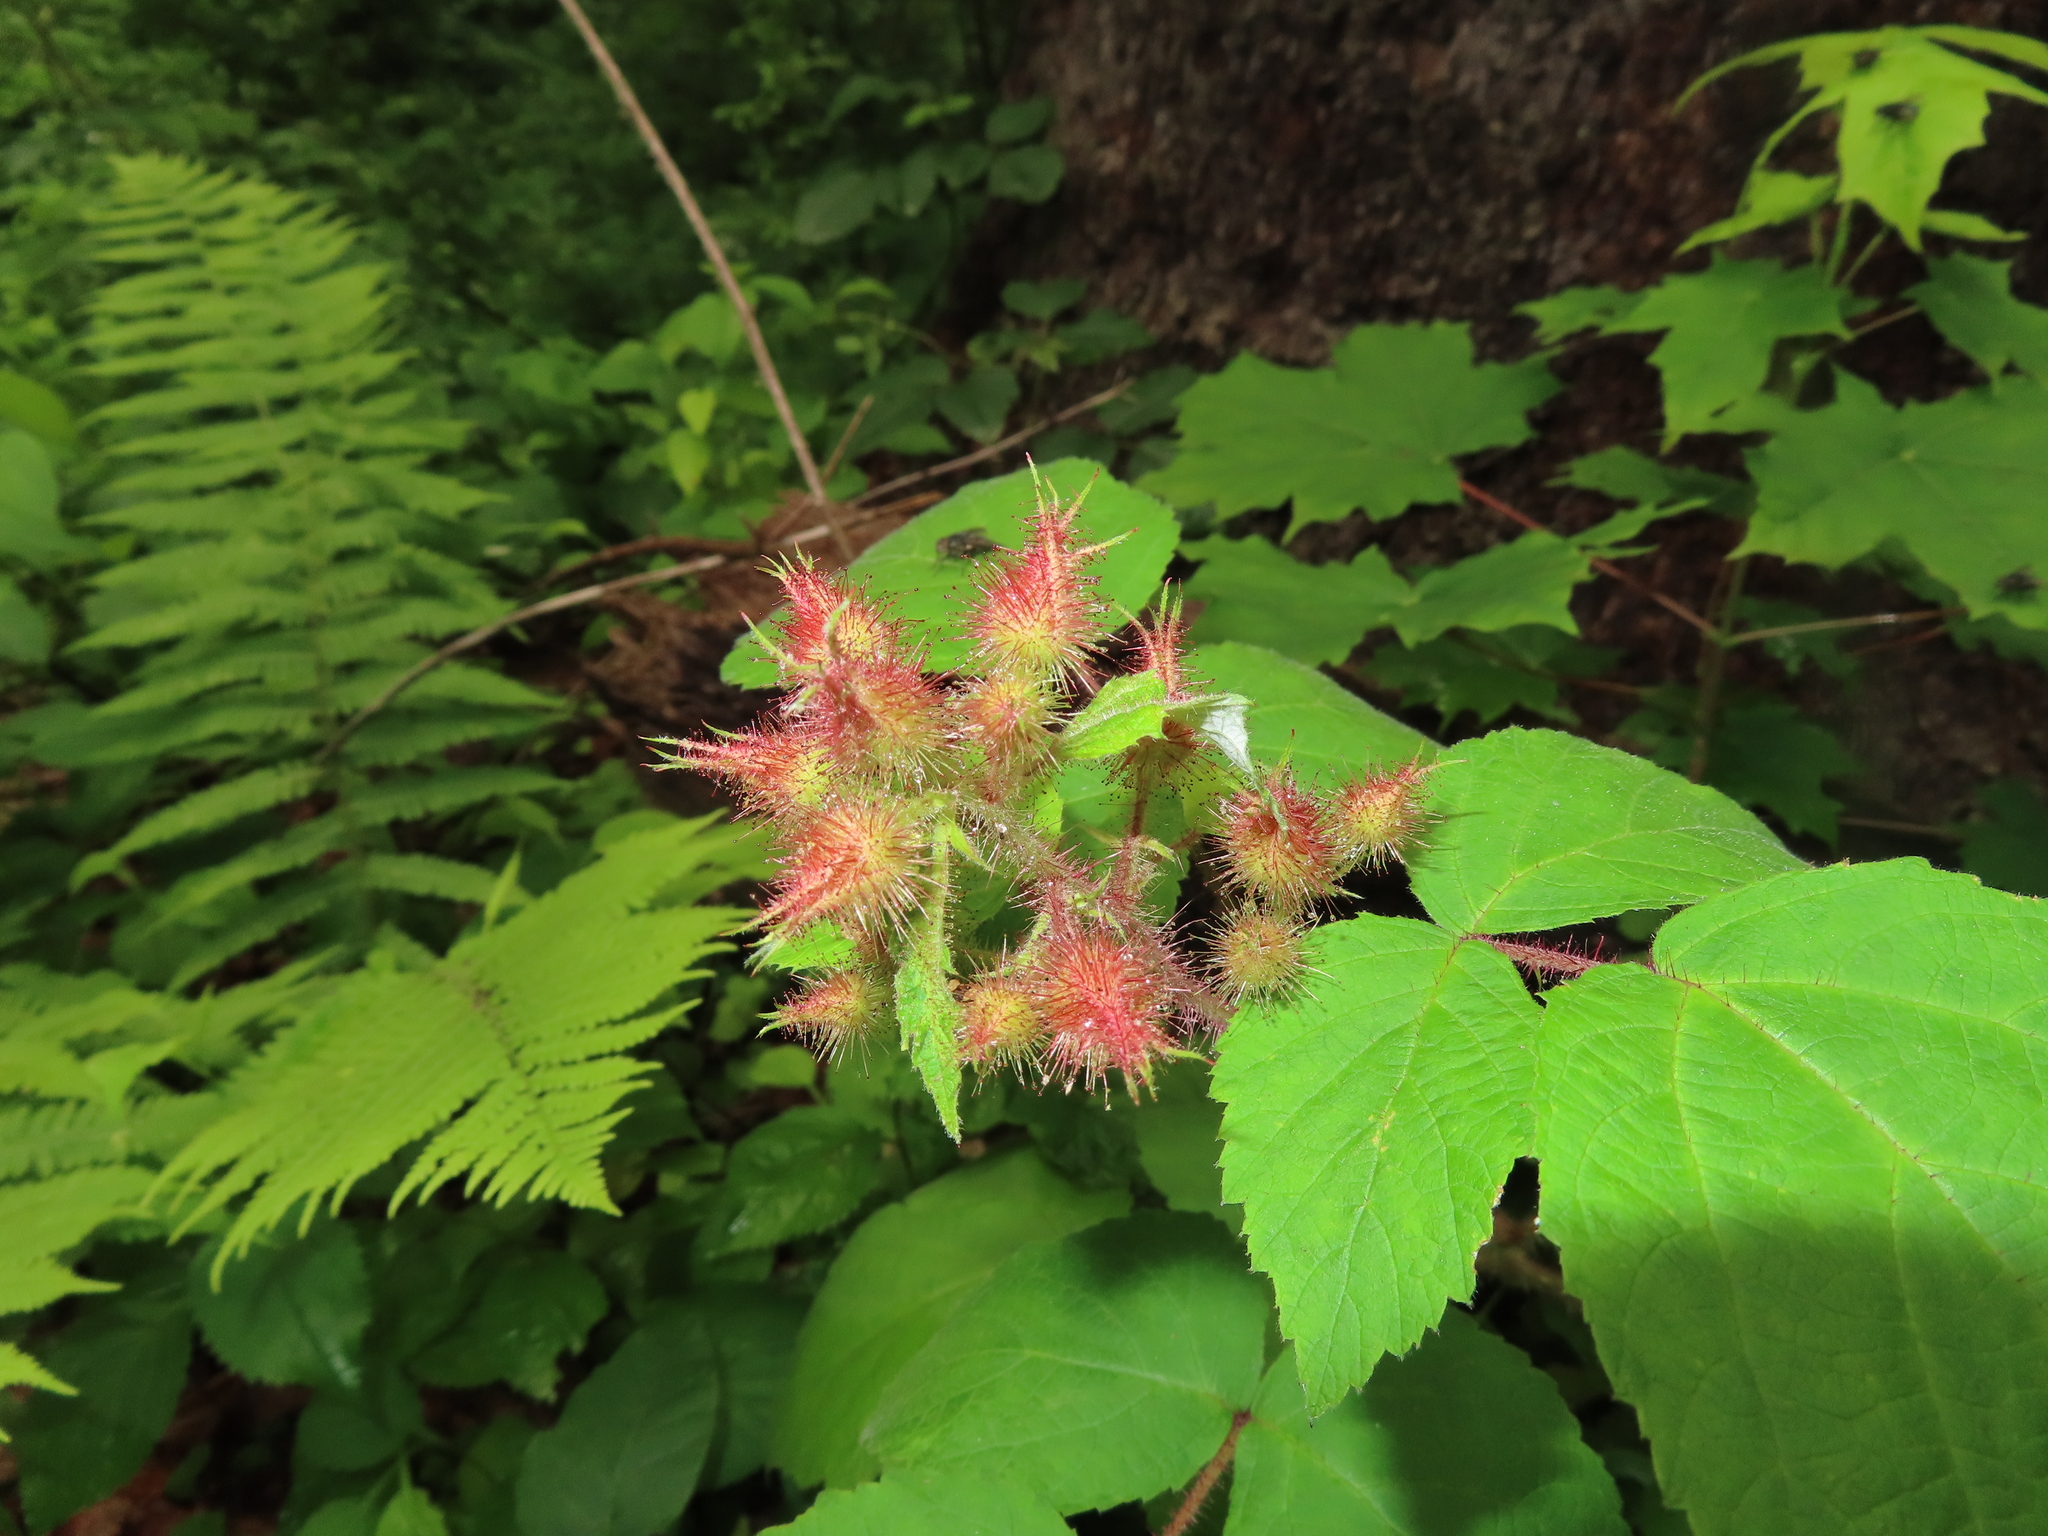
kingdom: Plantae
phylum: Tracheophyta
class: Magnoliopsida
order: Rosales
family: Rosaceae
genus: Rubus
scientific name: Rubus phoenicolasius
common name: Japanese wineberry
